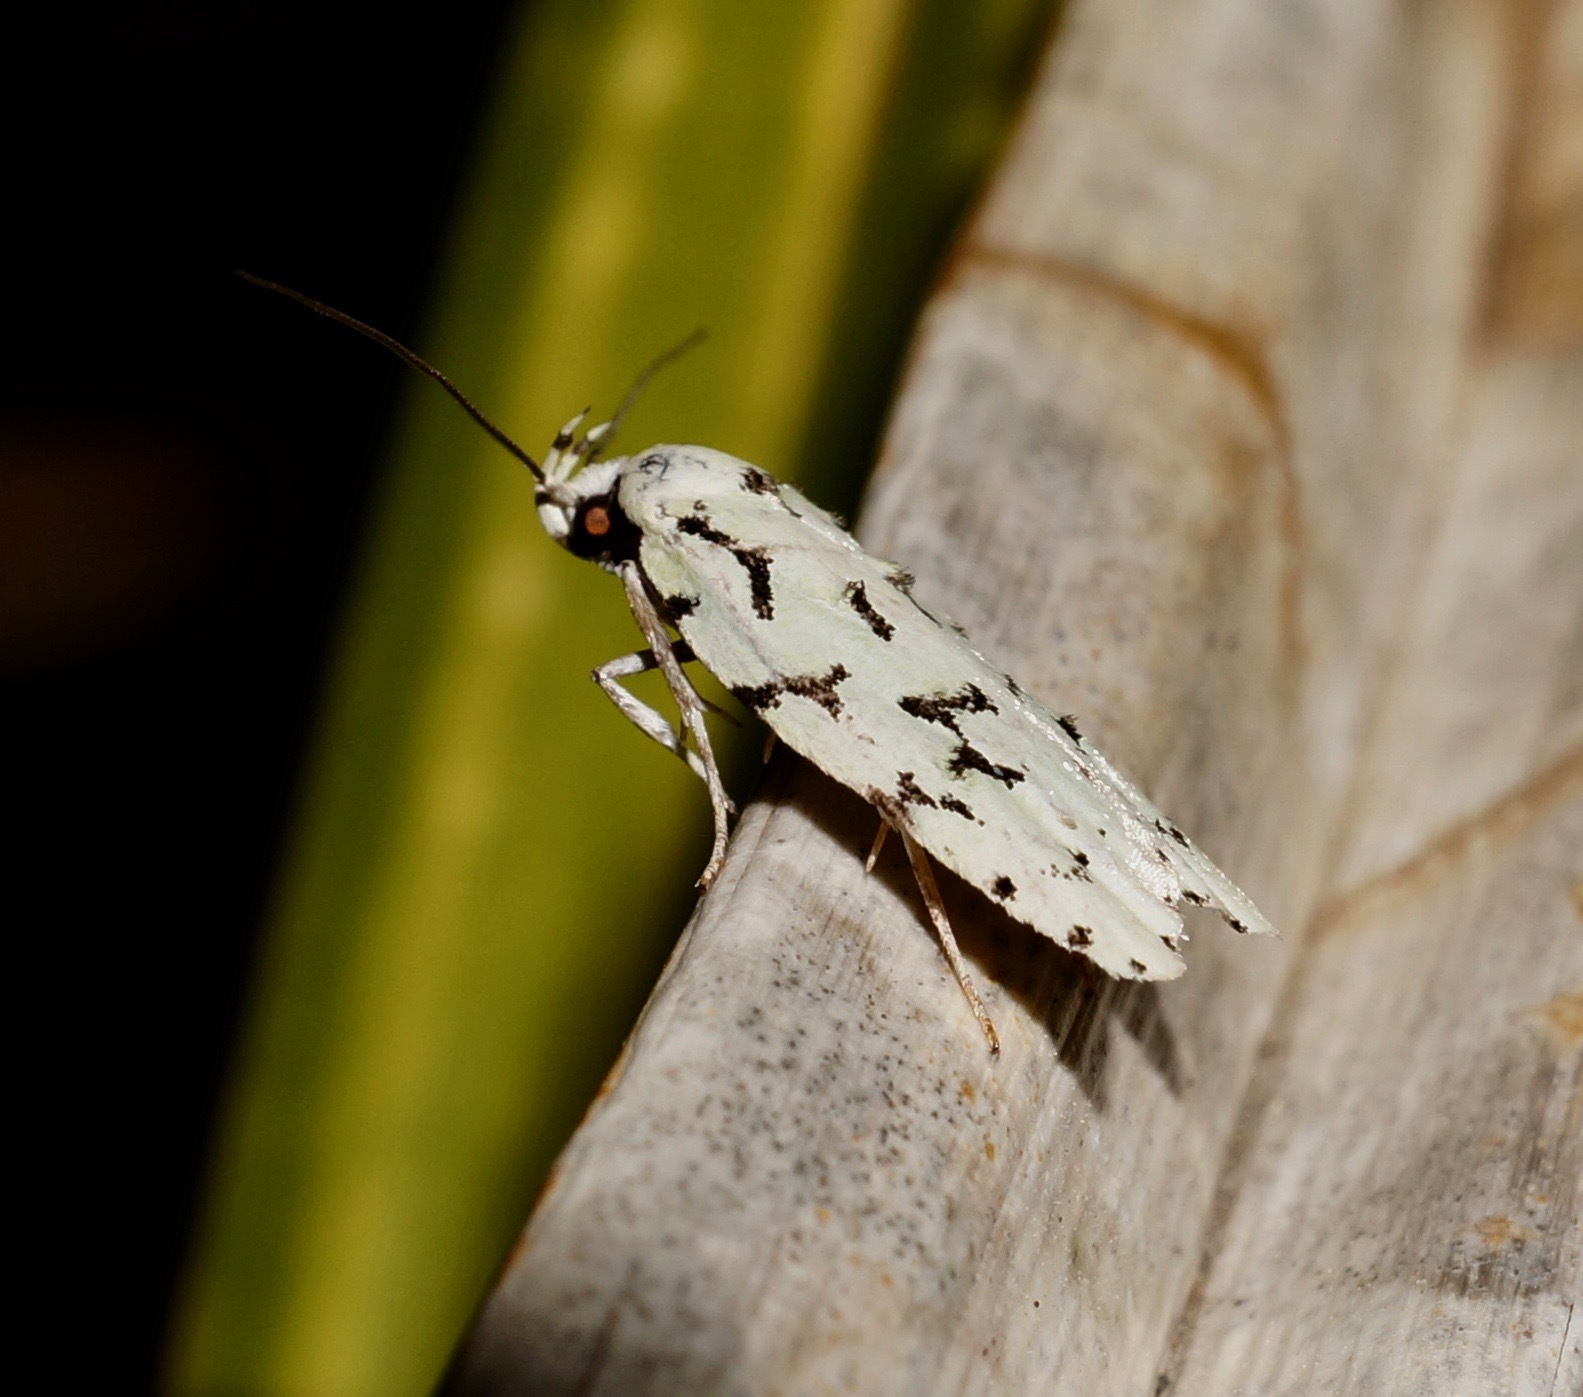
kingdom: Animalia
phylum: Arthropoda
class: Insecta
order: Lepidoptera
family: Oecophoridae
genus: Izatha
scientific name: Izatha huttoni
